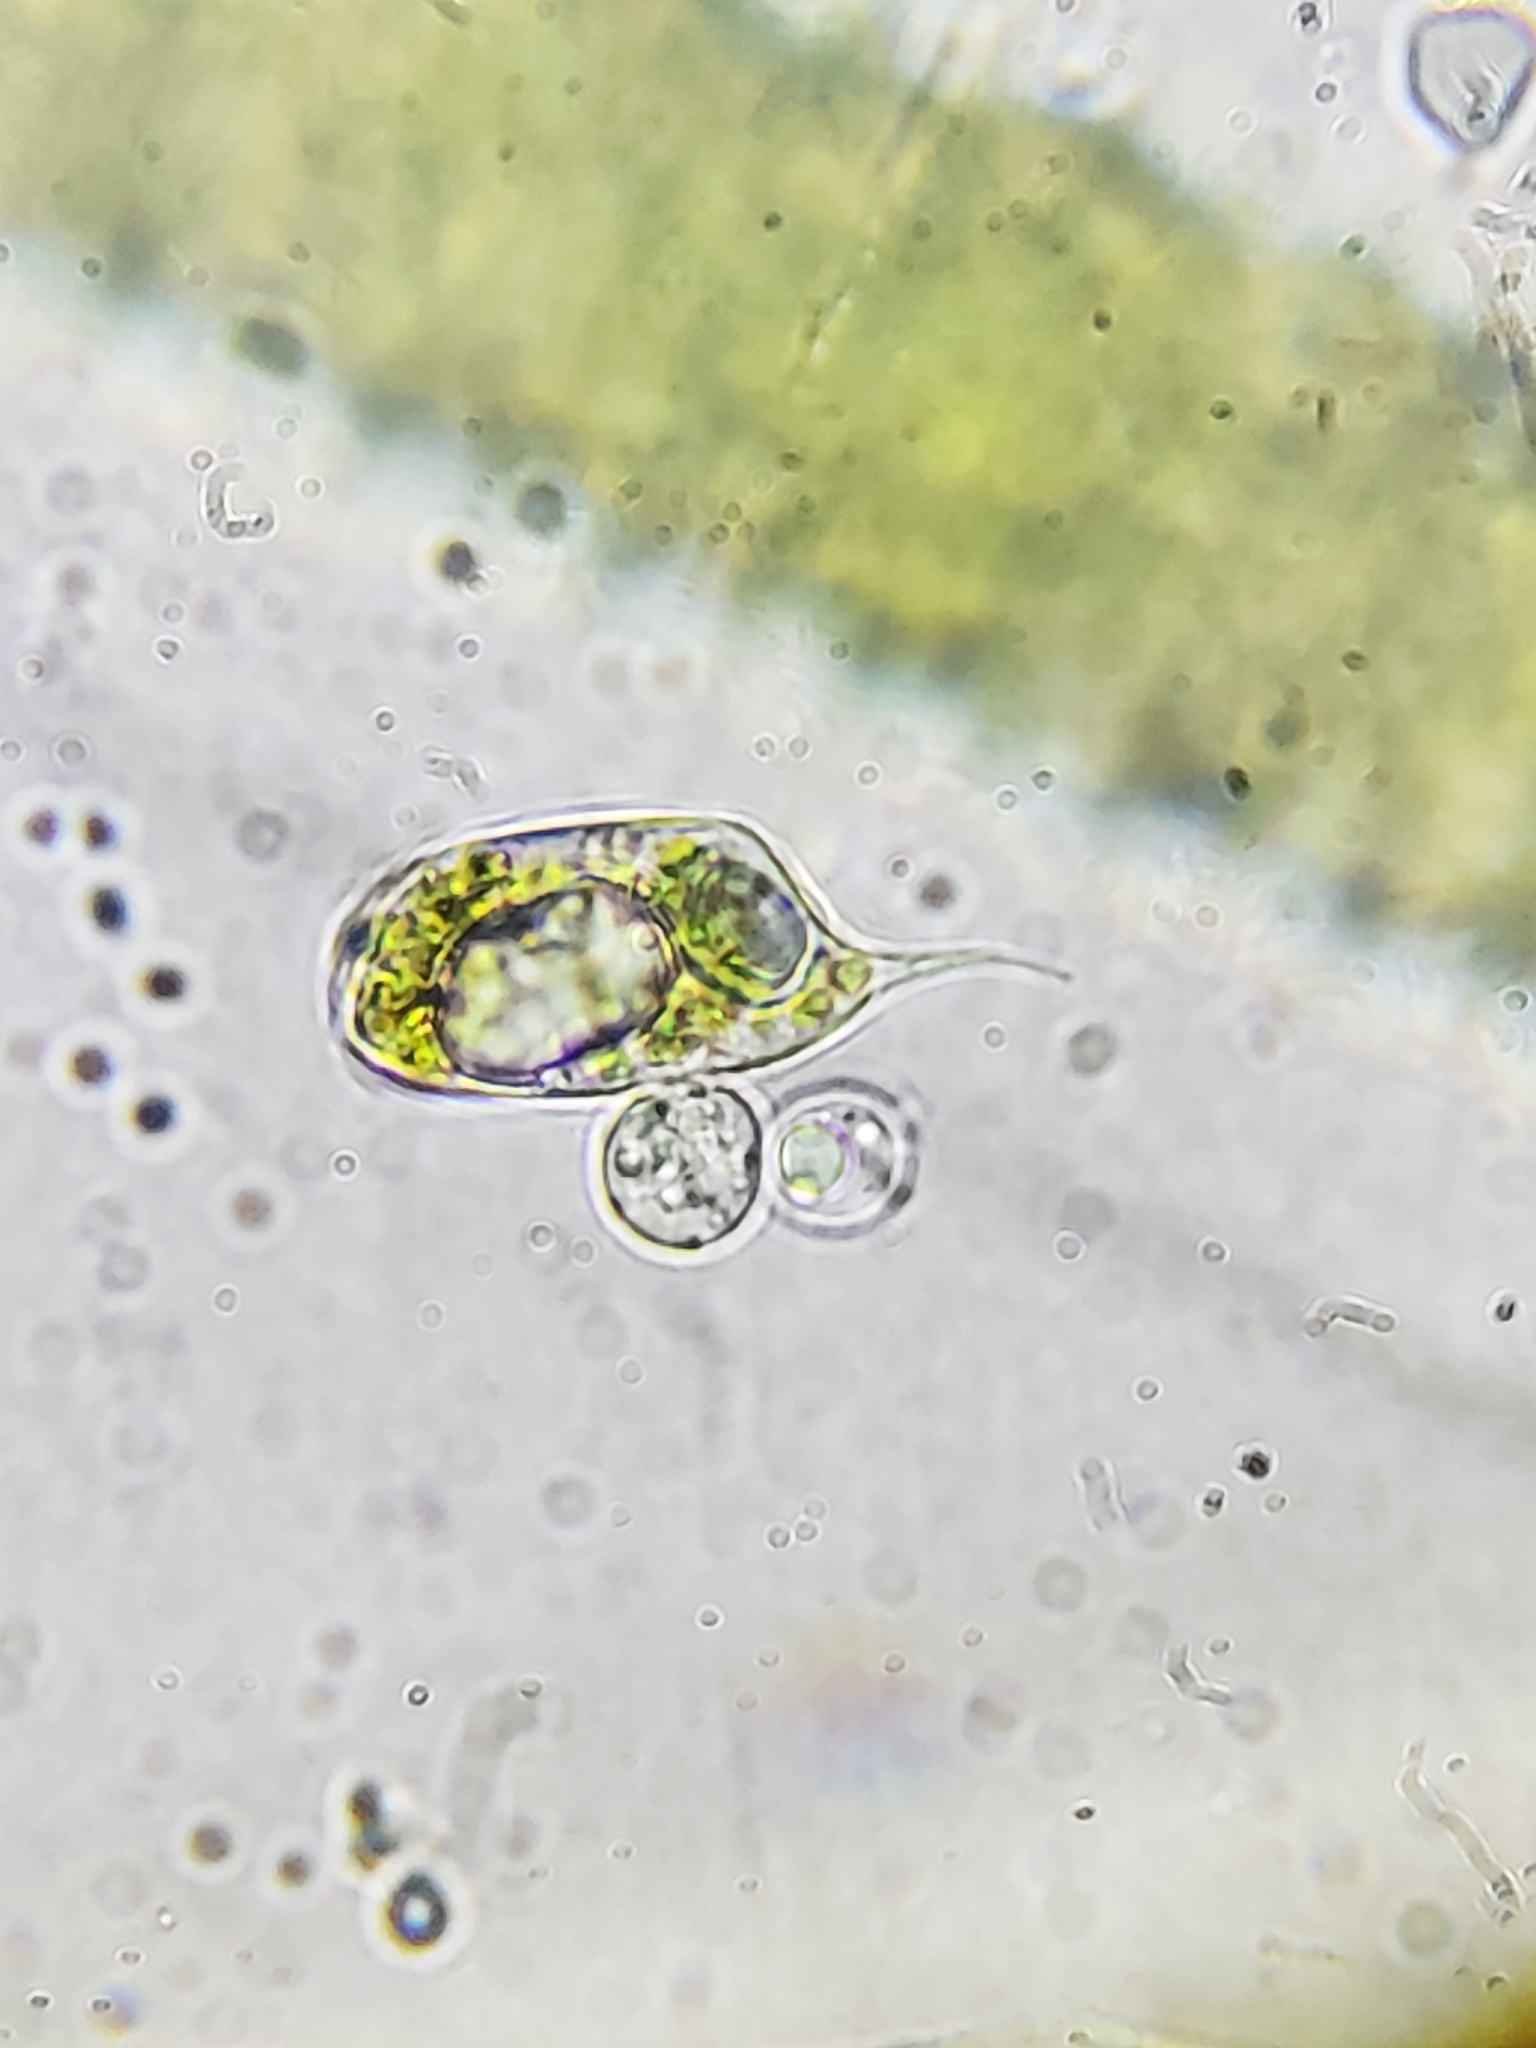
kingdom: Protozoa
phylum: Euglenozoa
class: Euglenoidea
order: Euglenida
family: Phacidae
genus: Phacus
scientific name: Phacus ankylonoton
